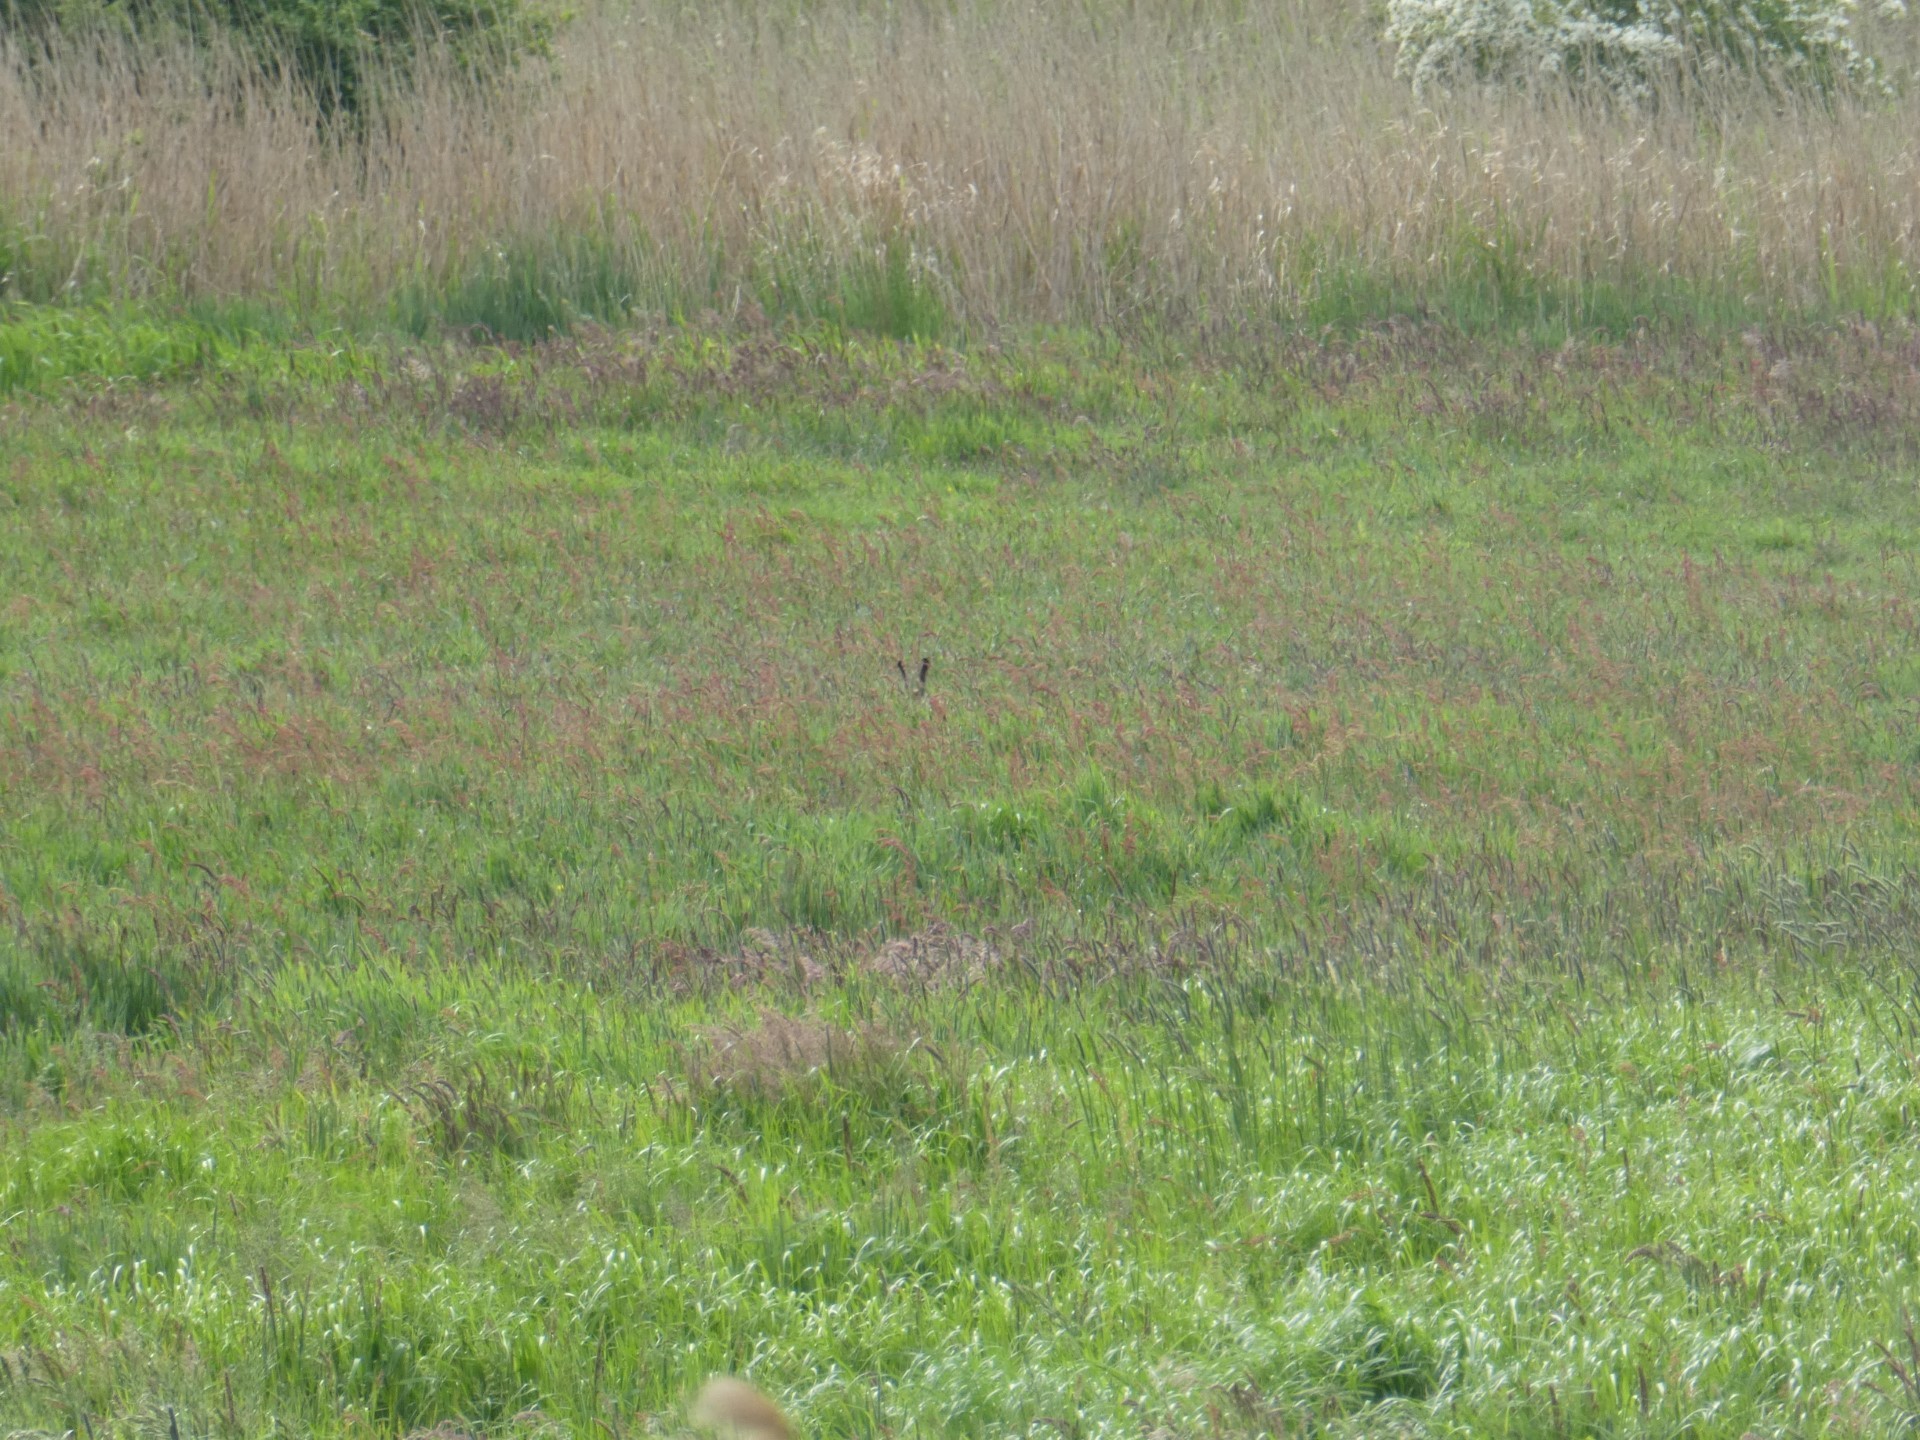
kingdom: Animalia
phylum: Chordata
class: Mammalia
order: Lagomorpha
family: Leporidae
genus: Lepus
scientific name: Lepus europaeus
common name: European hare
